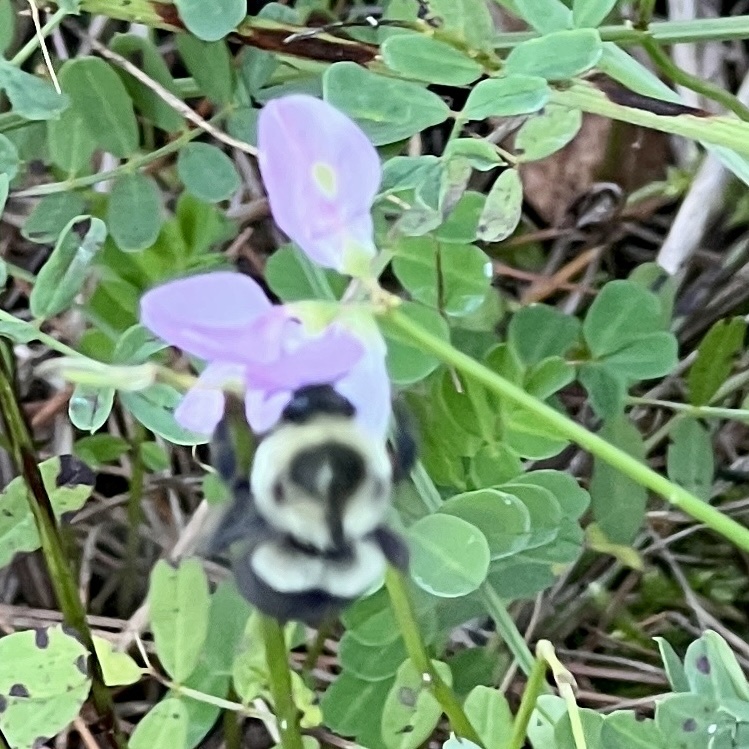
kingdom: Animalia
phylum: Arthropoda
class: Insecta
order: Hymenoptera
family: Apidae
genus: Bombus
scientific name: Bombus impatiens
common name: Common eastern bumble bee
